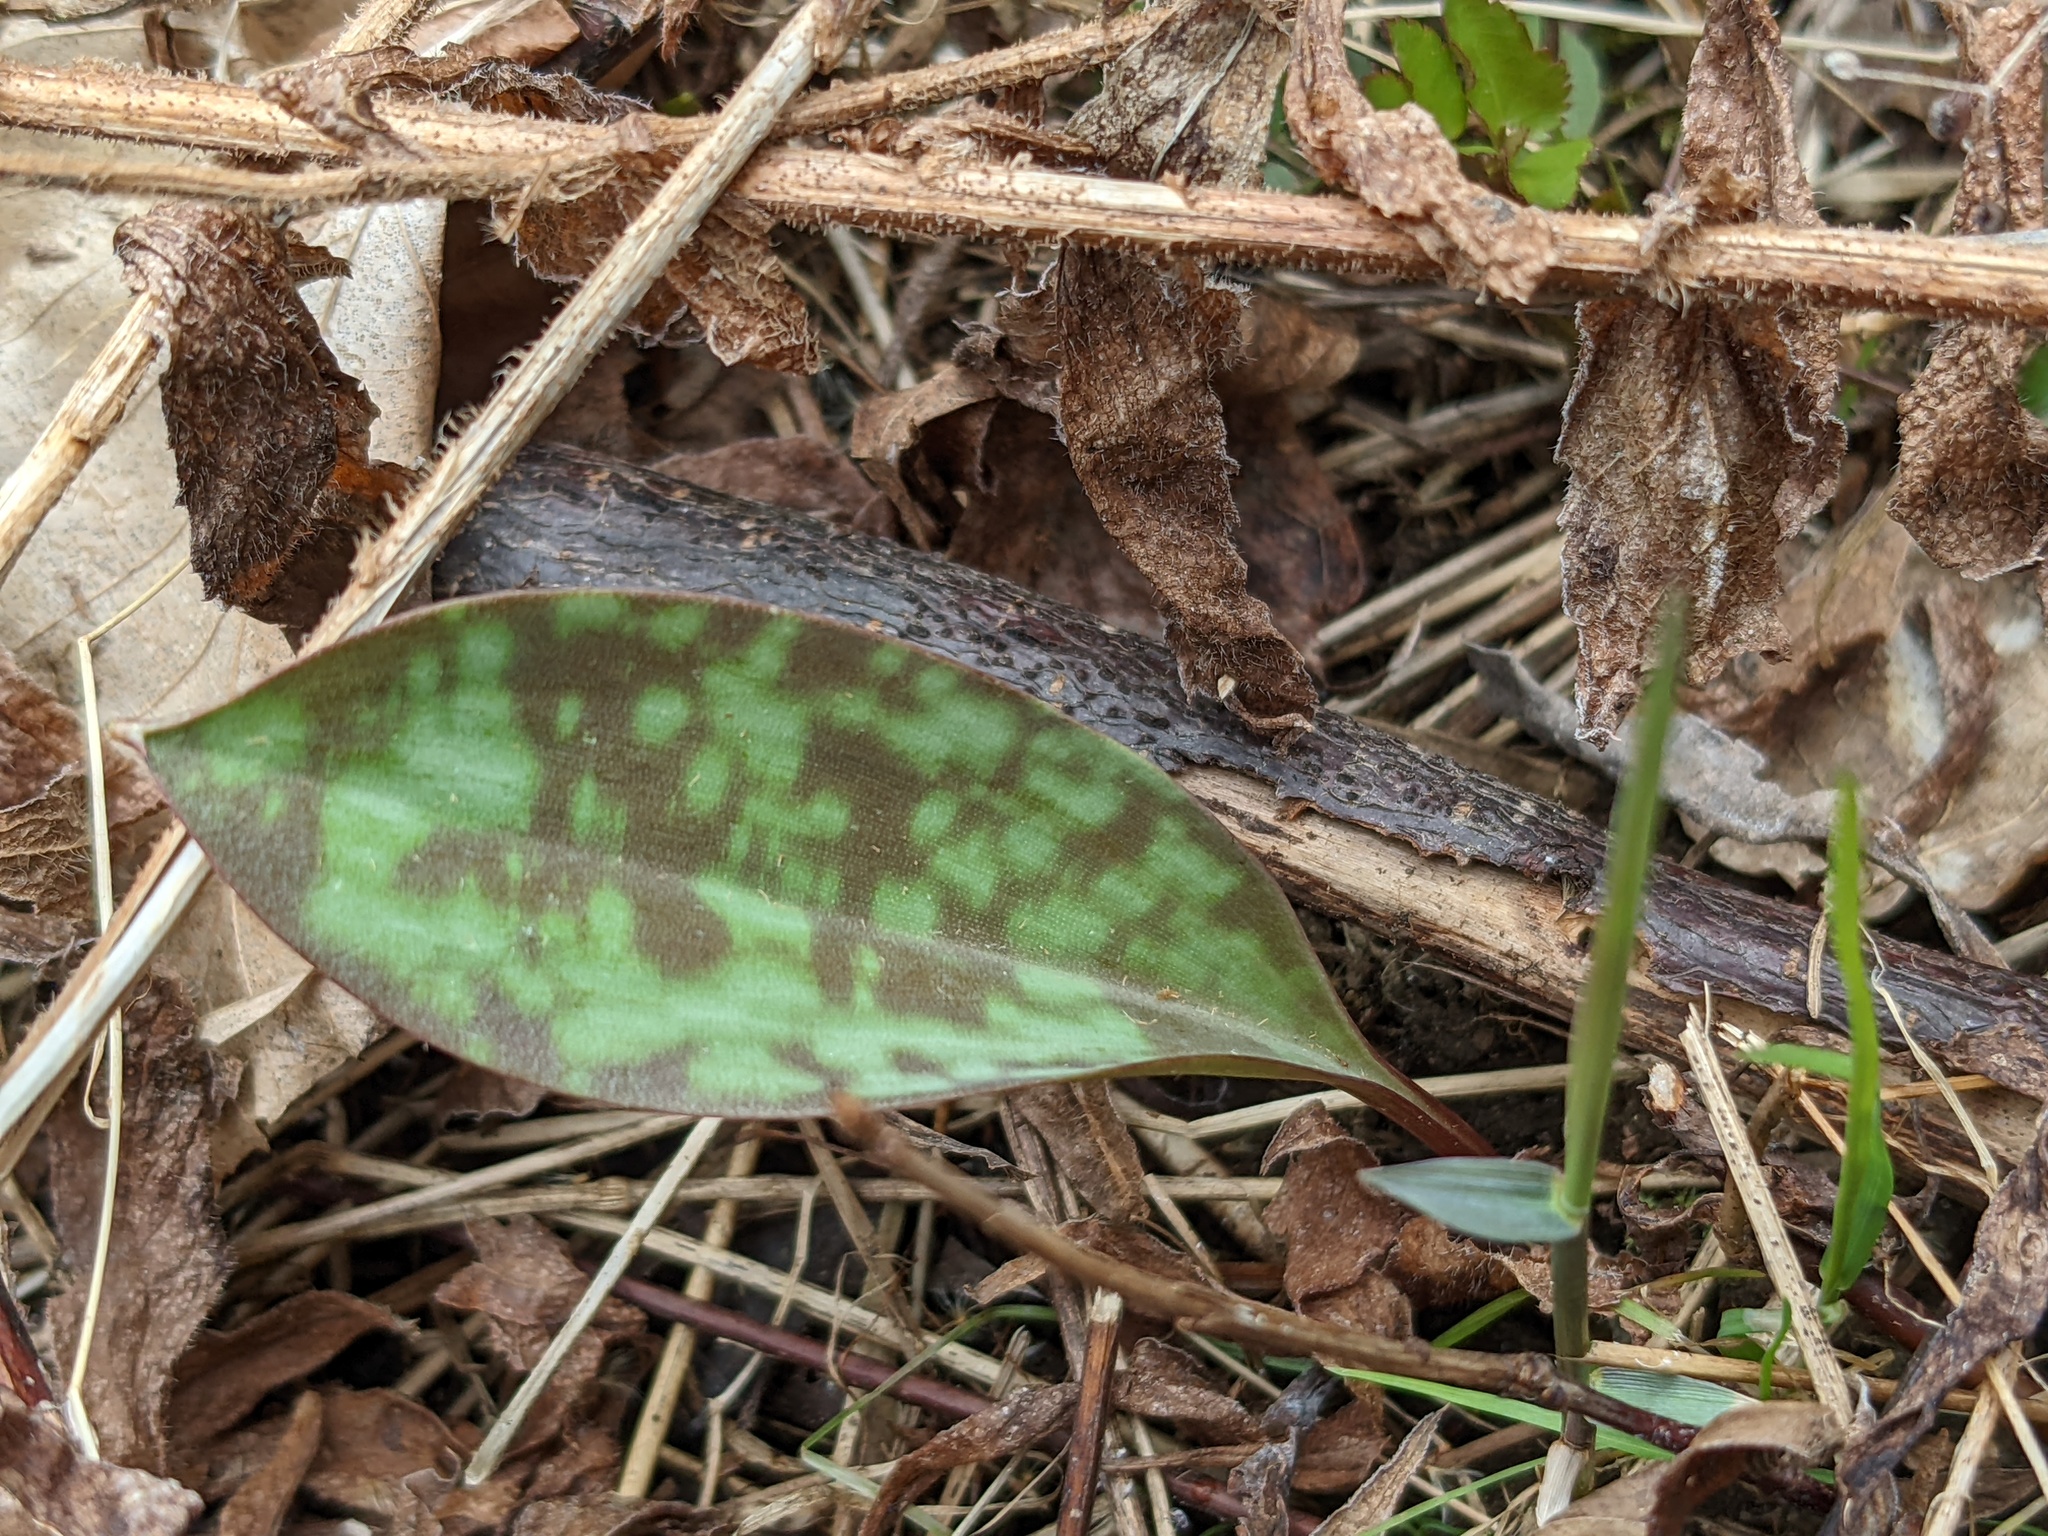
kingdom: Plantae
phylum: Tracheophyta
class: Liliopsida
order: Liliales
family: Liliaceae
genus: Erythronium
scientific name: Erythronium americanum
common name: Yellow adder's-tongue
